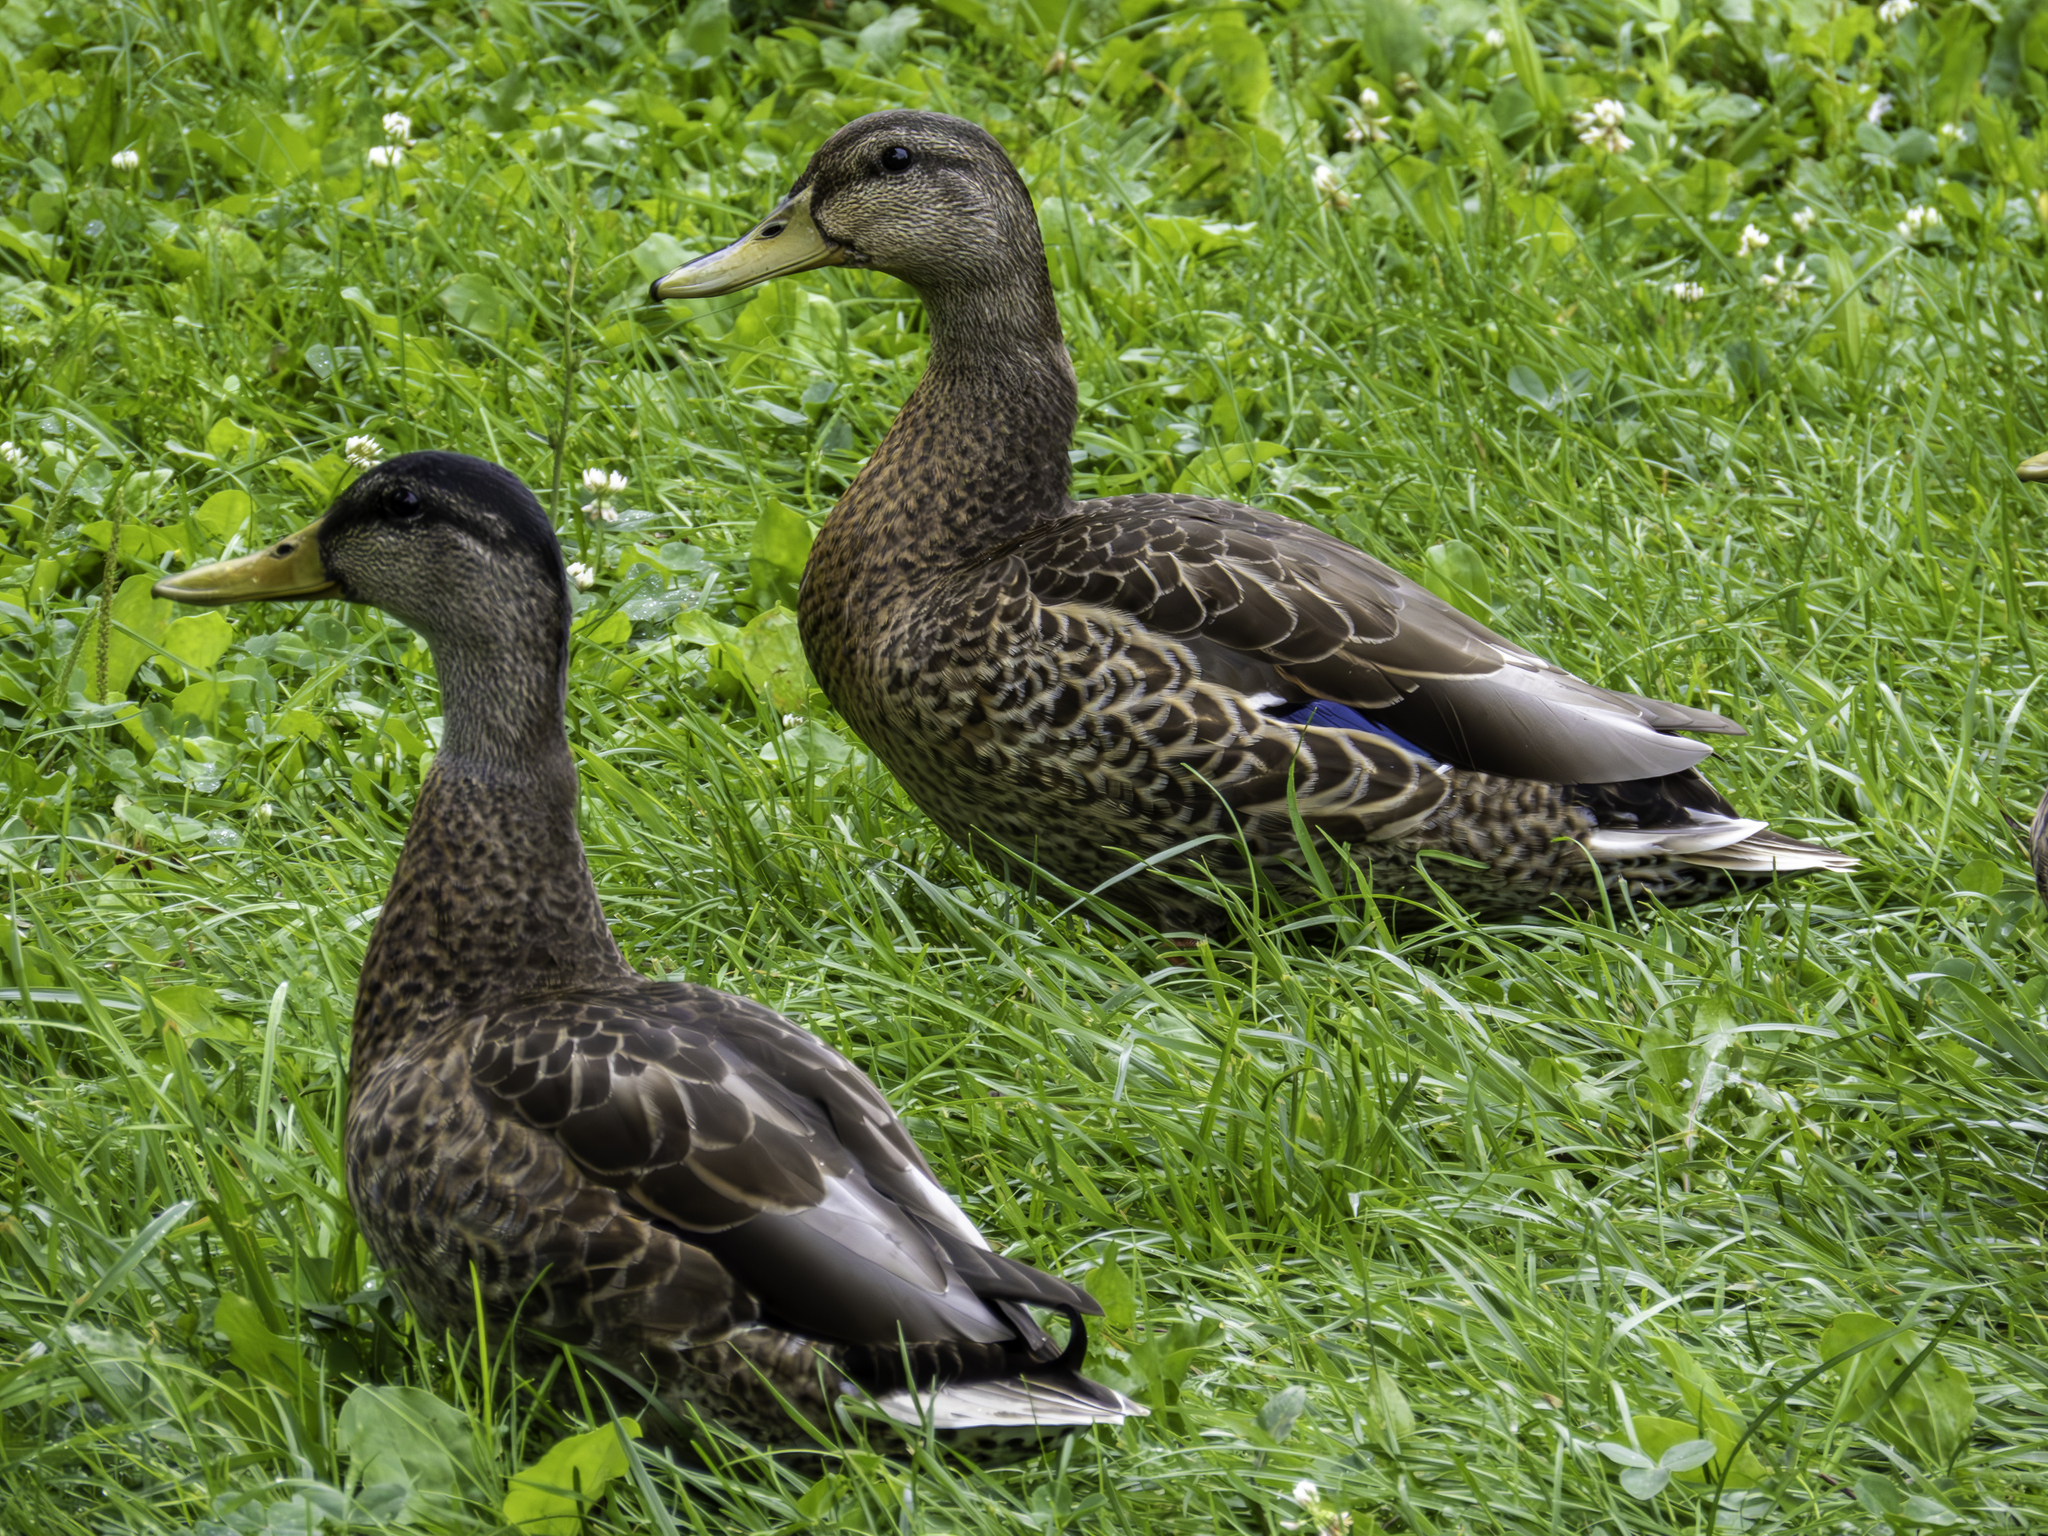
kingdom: Animalia
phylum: Chordata
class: Aves
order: Anseriformes
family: Anatidae
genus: Anas
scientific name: Anas platyrhynchos
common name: Mallard
